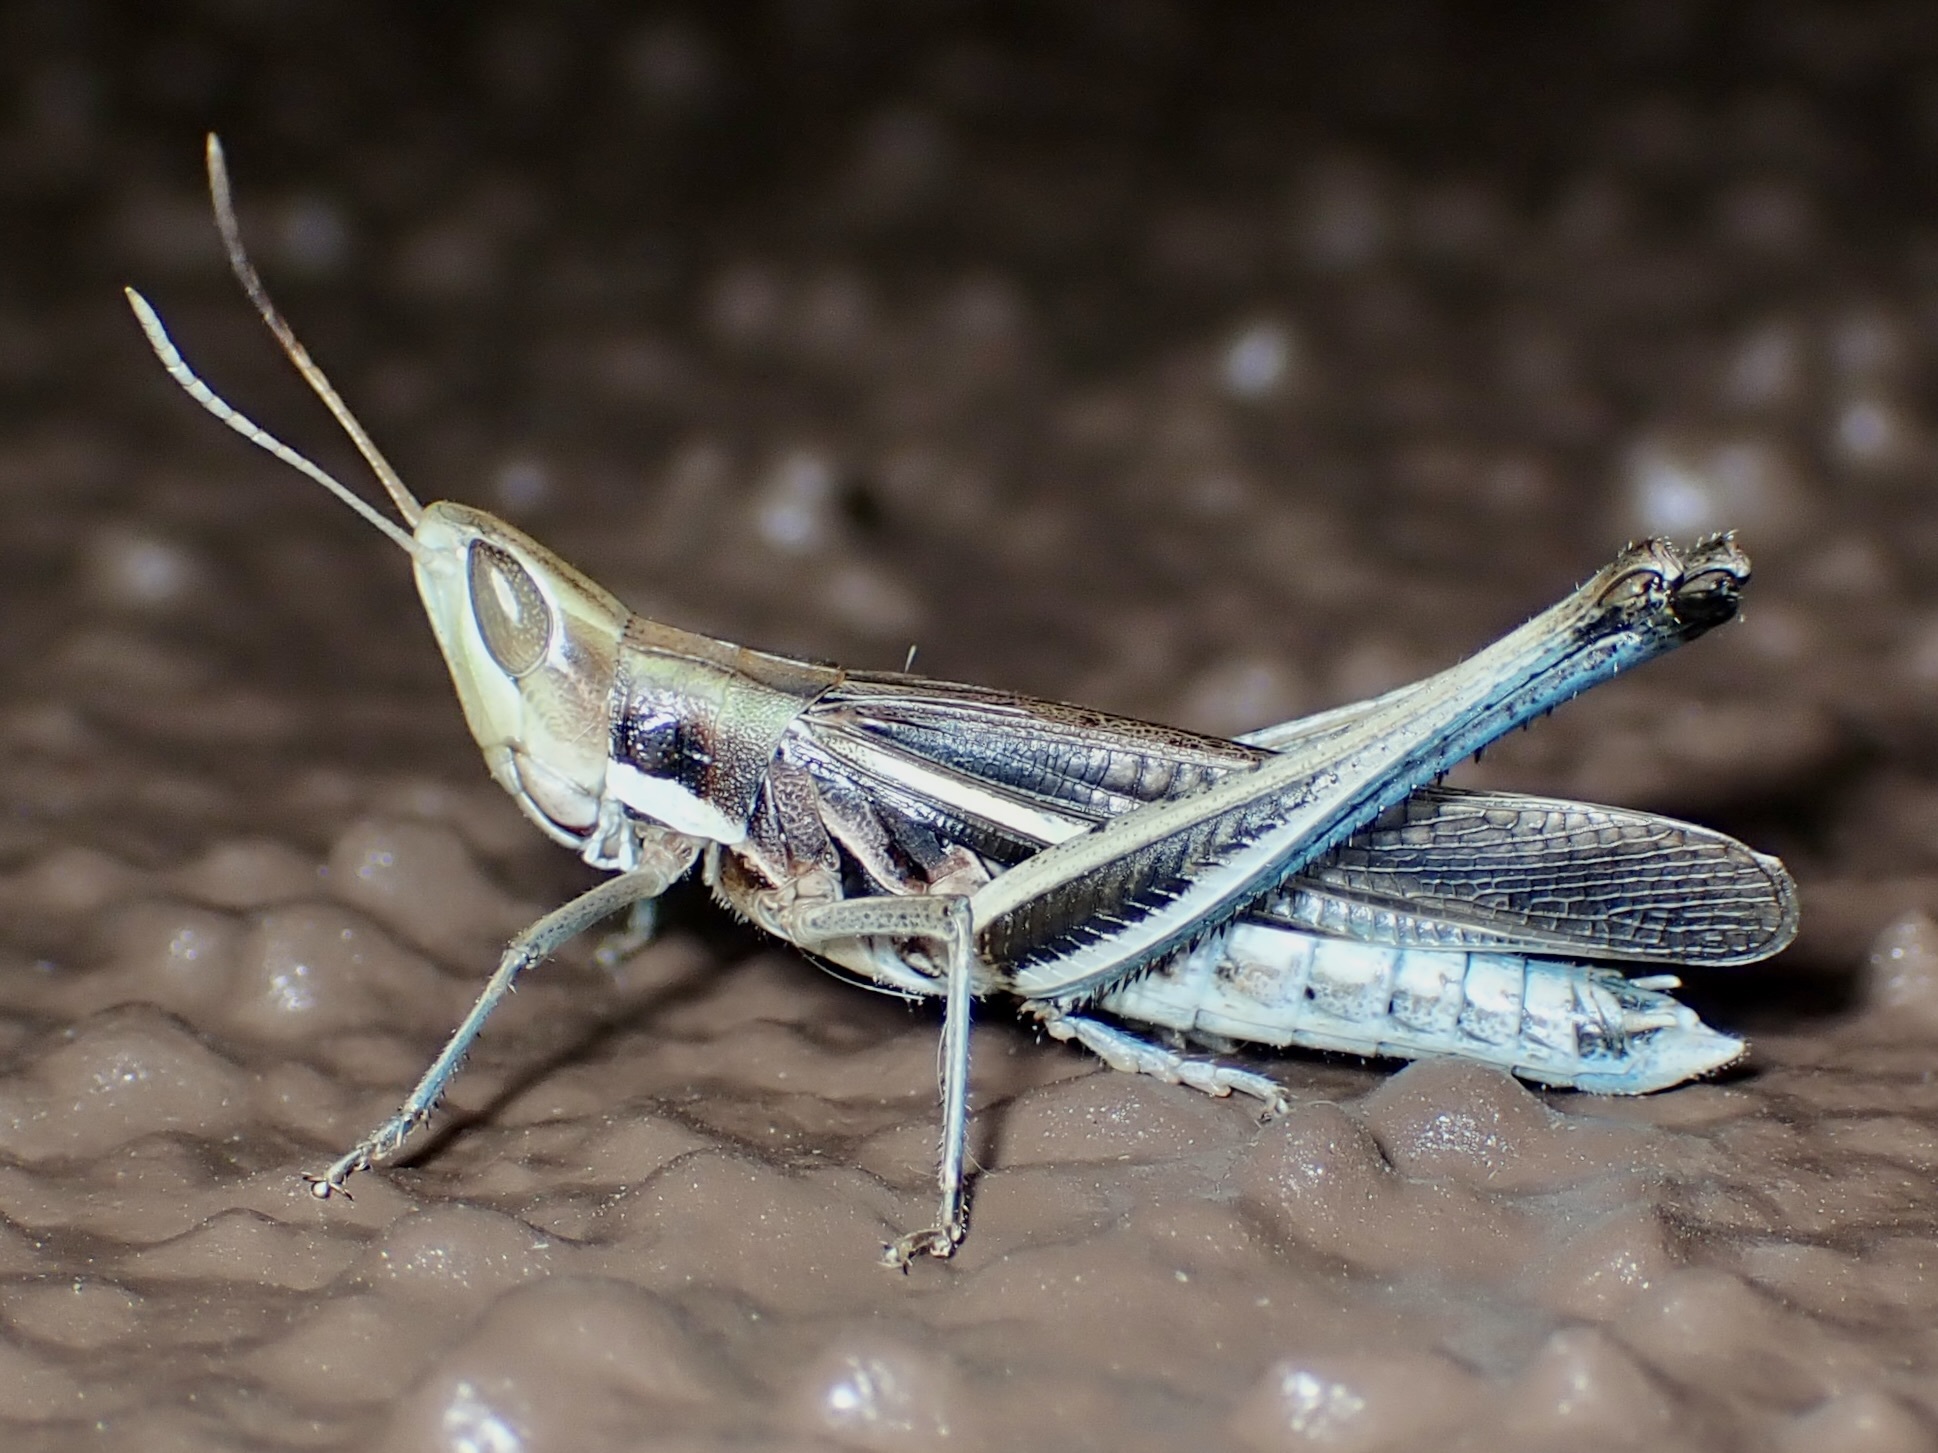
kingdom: Animalia
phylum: Arthropoda
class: Insecta
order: Orthoptera
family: Acrididae
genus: Syrbula
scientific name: Syrbula montezuma
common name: Montezuma's grasshopper
